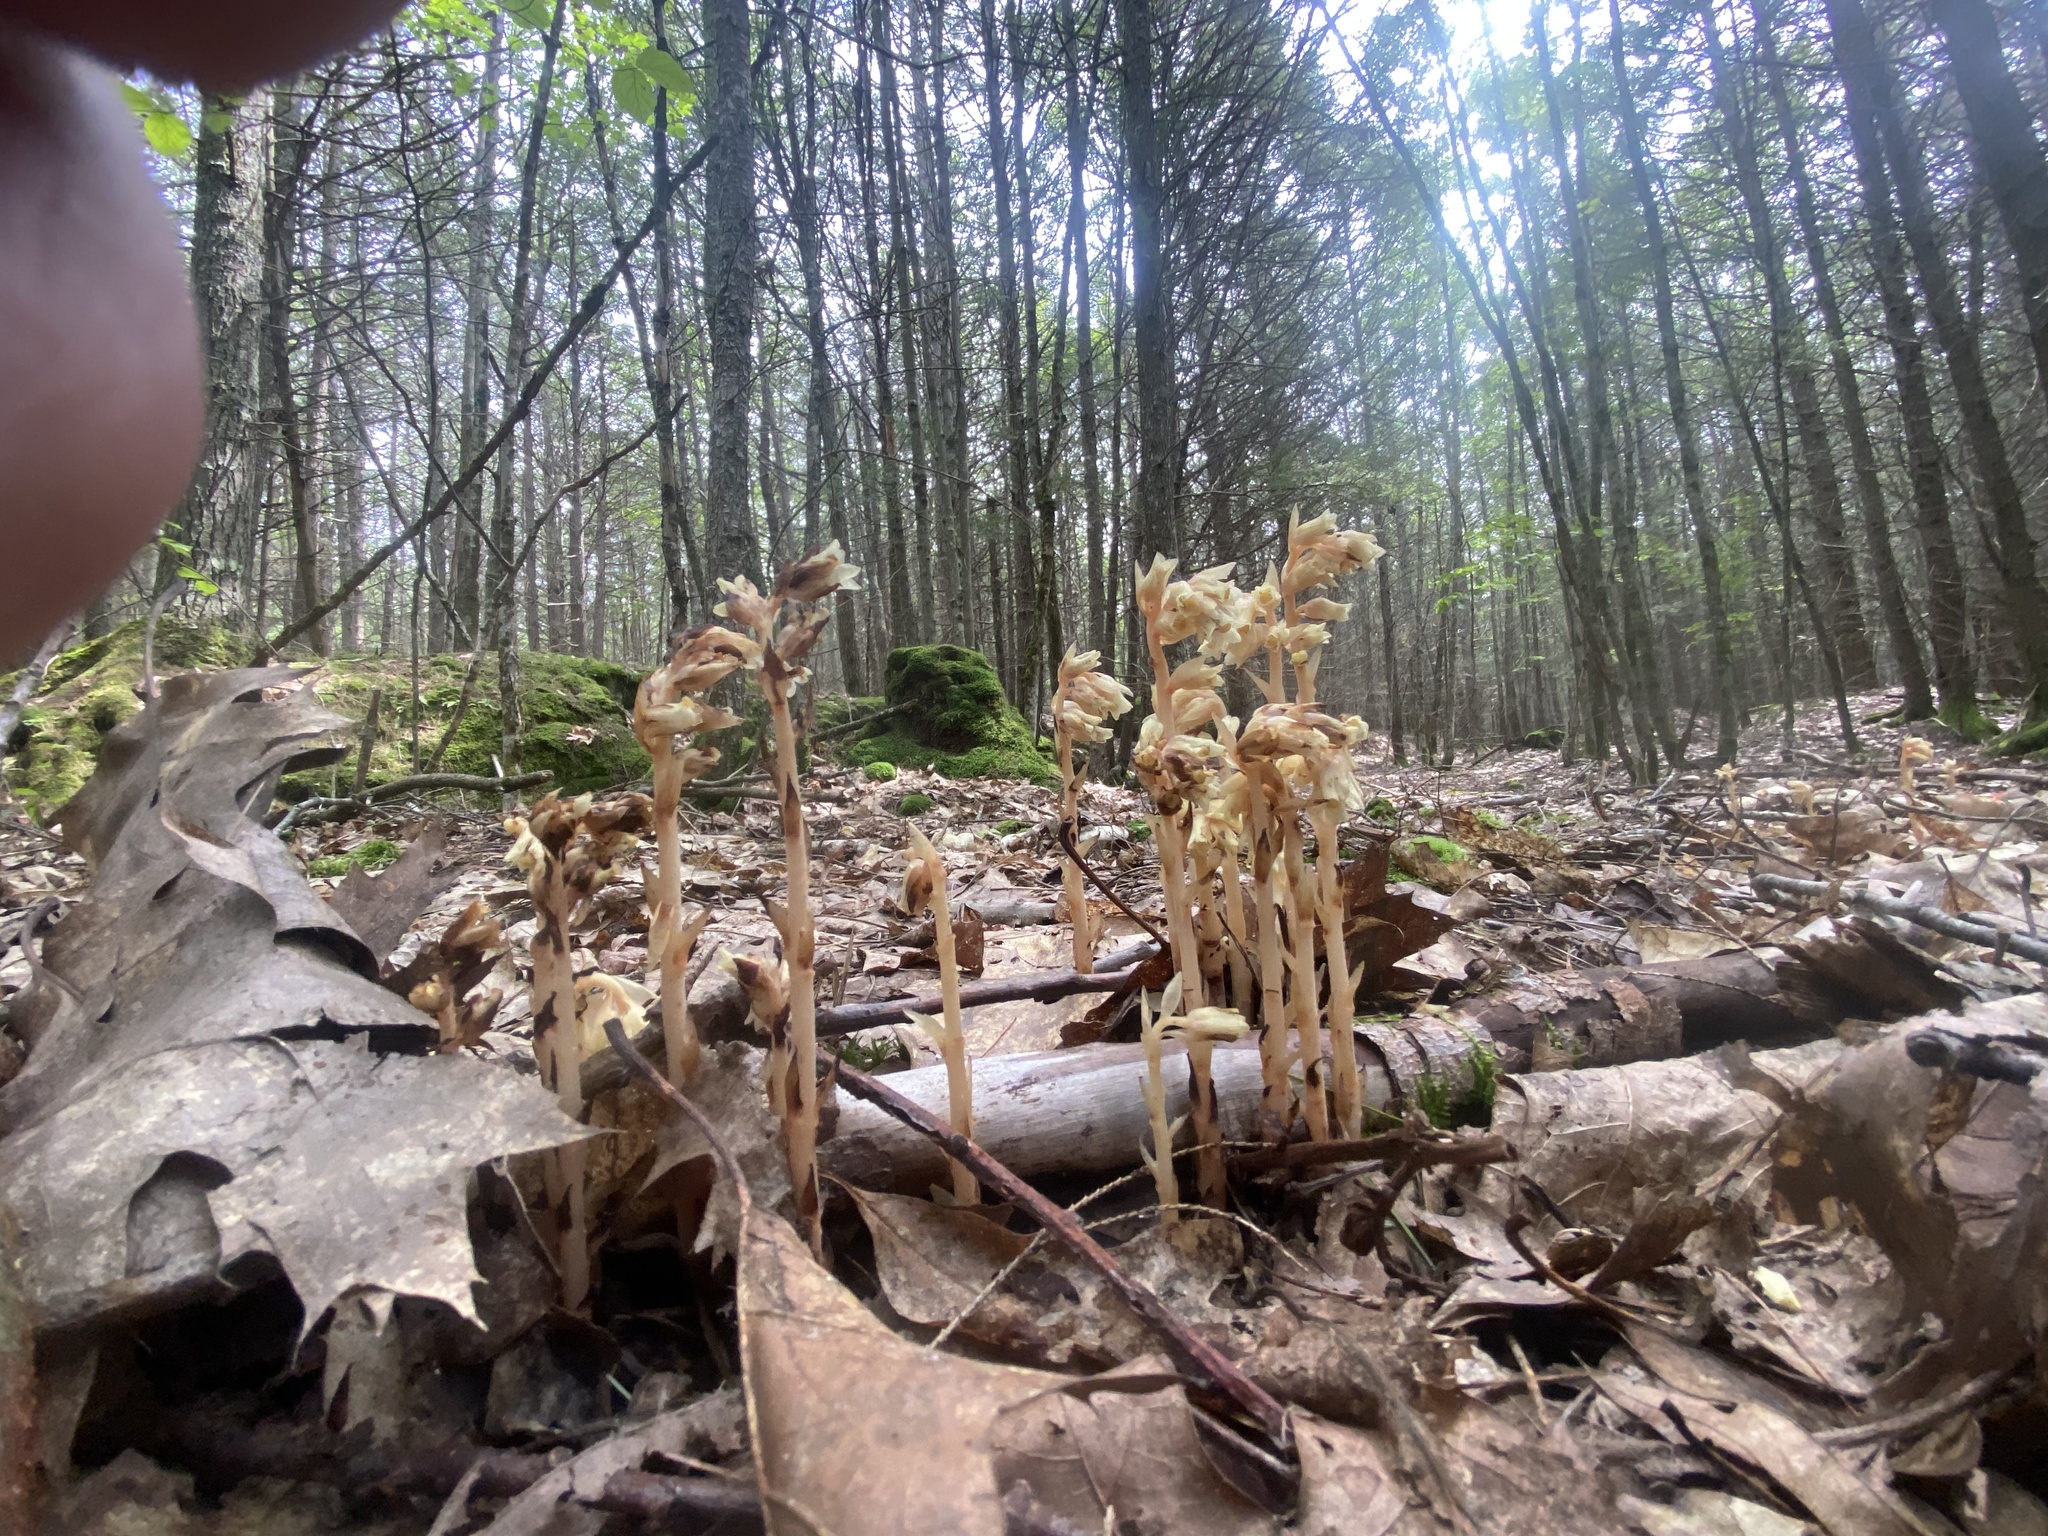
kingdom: Plantae
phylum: Tracheophyta
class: Magnoliopsida
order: Ericales
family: Ericaceae
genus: Hypopitys
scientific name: Hypopitys monotropa
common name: Yellow bird's-nest
